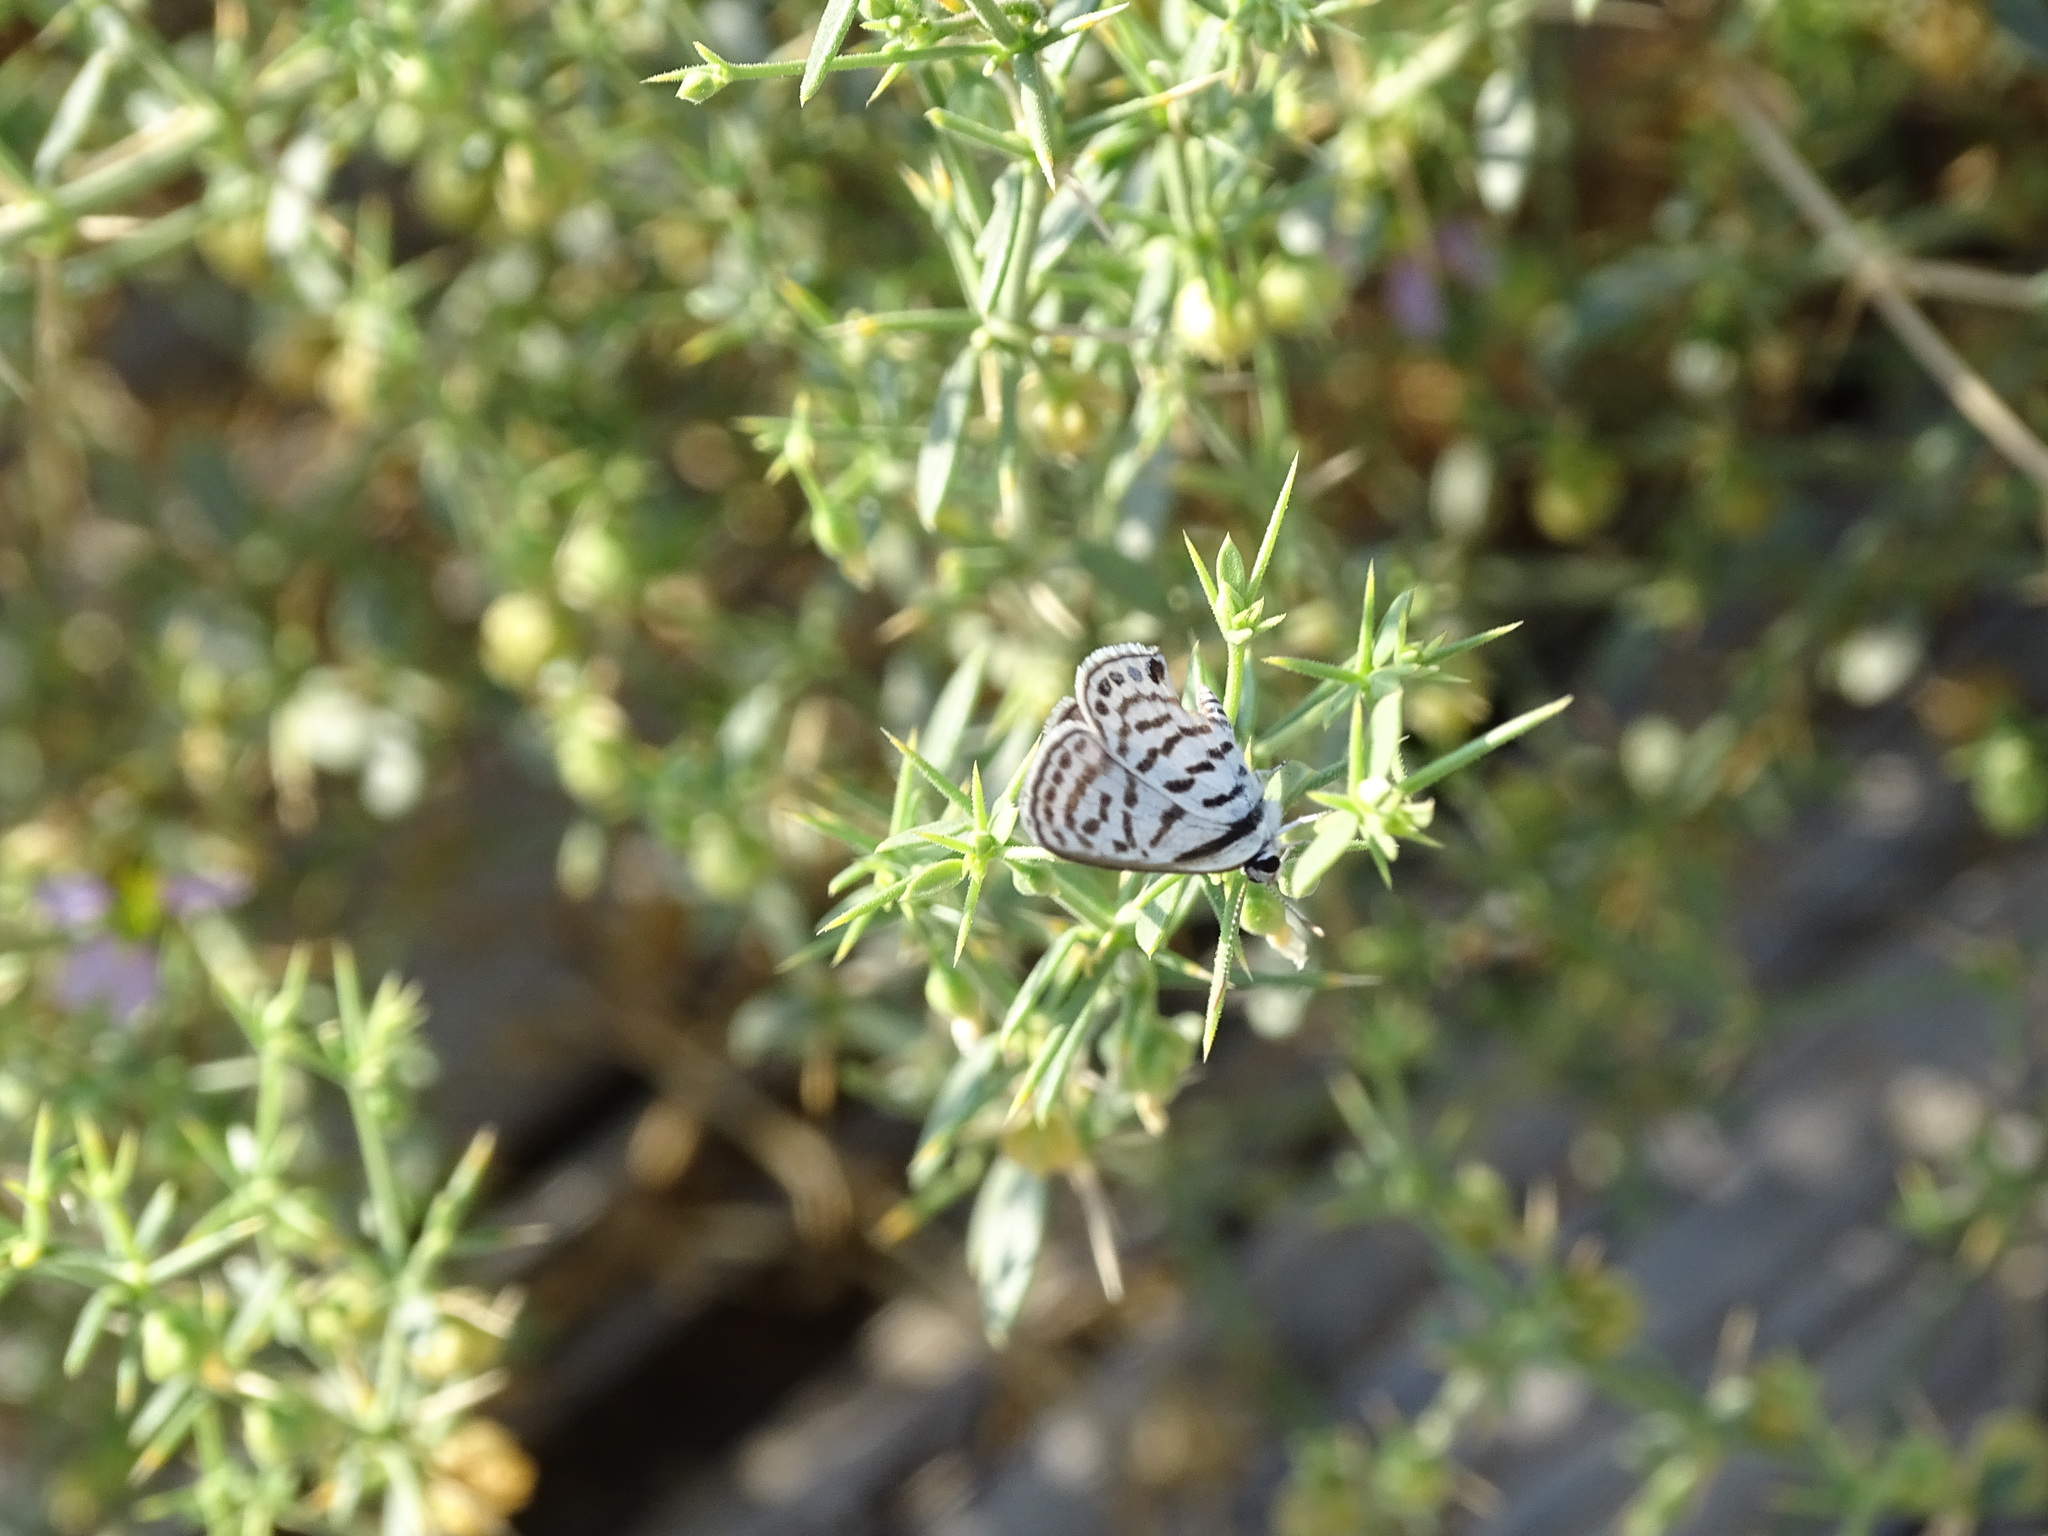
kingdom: Animalia
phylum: Arthropoda
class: Insecta
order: Lepidoptera
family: Lycaenidae
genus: Tarucus
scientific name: Tarucus rosacea
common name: Mediterranean pierrot
